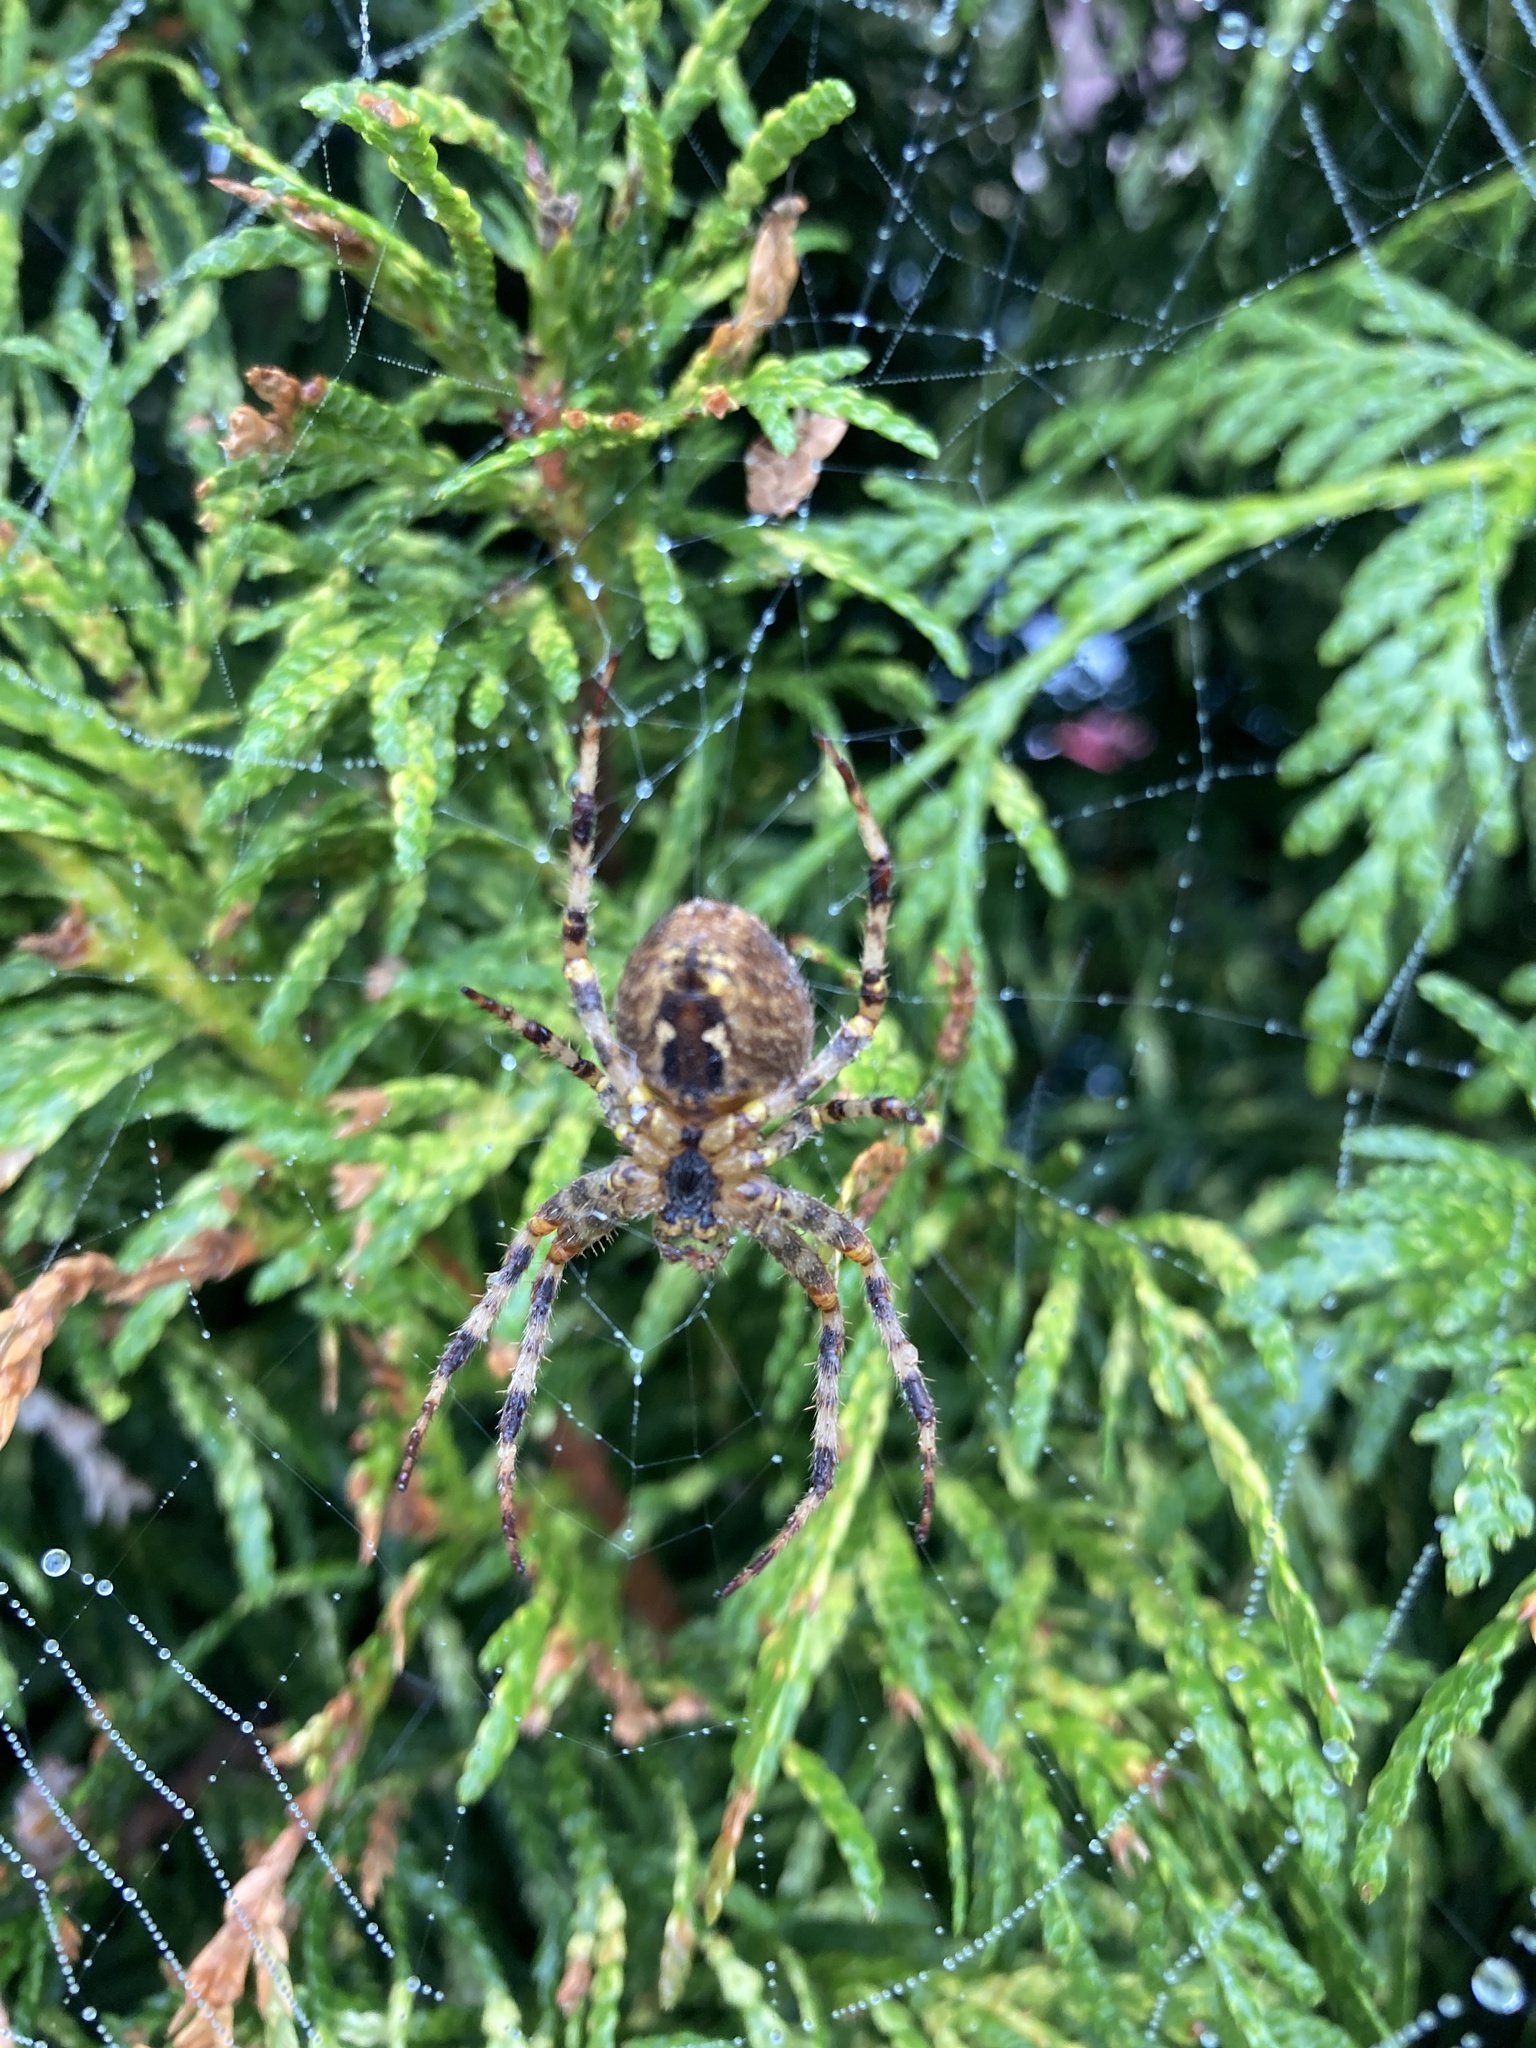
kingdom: Animalia
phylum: Arthropoda
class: Arachnida
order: Araneae
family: Araneidae
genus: Araneus
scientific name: Araneus diadematus
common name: Cross orbweaver
